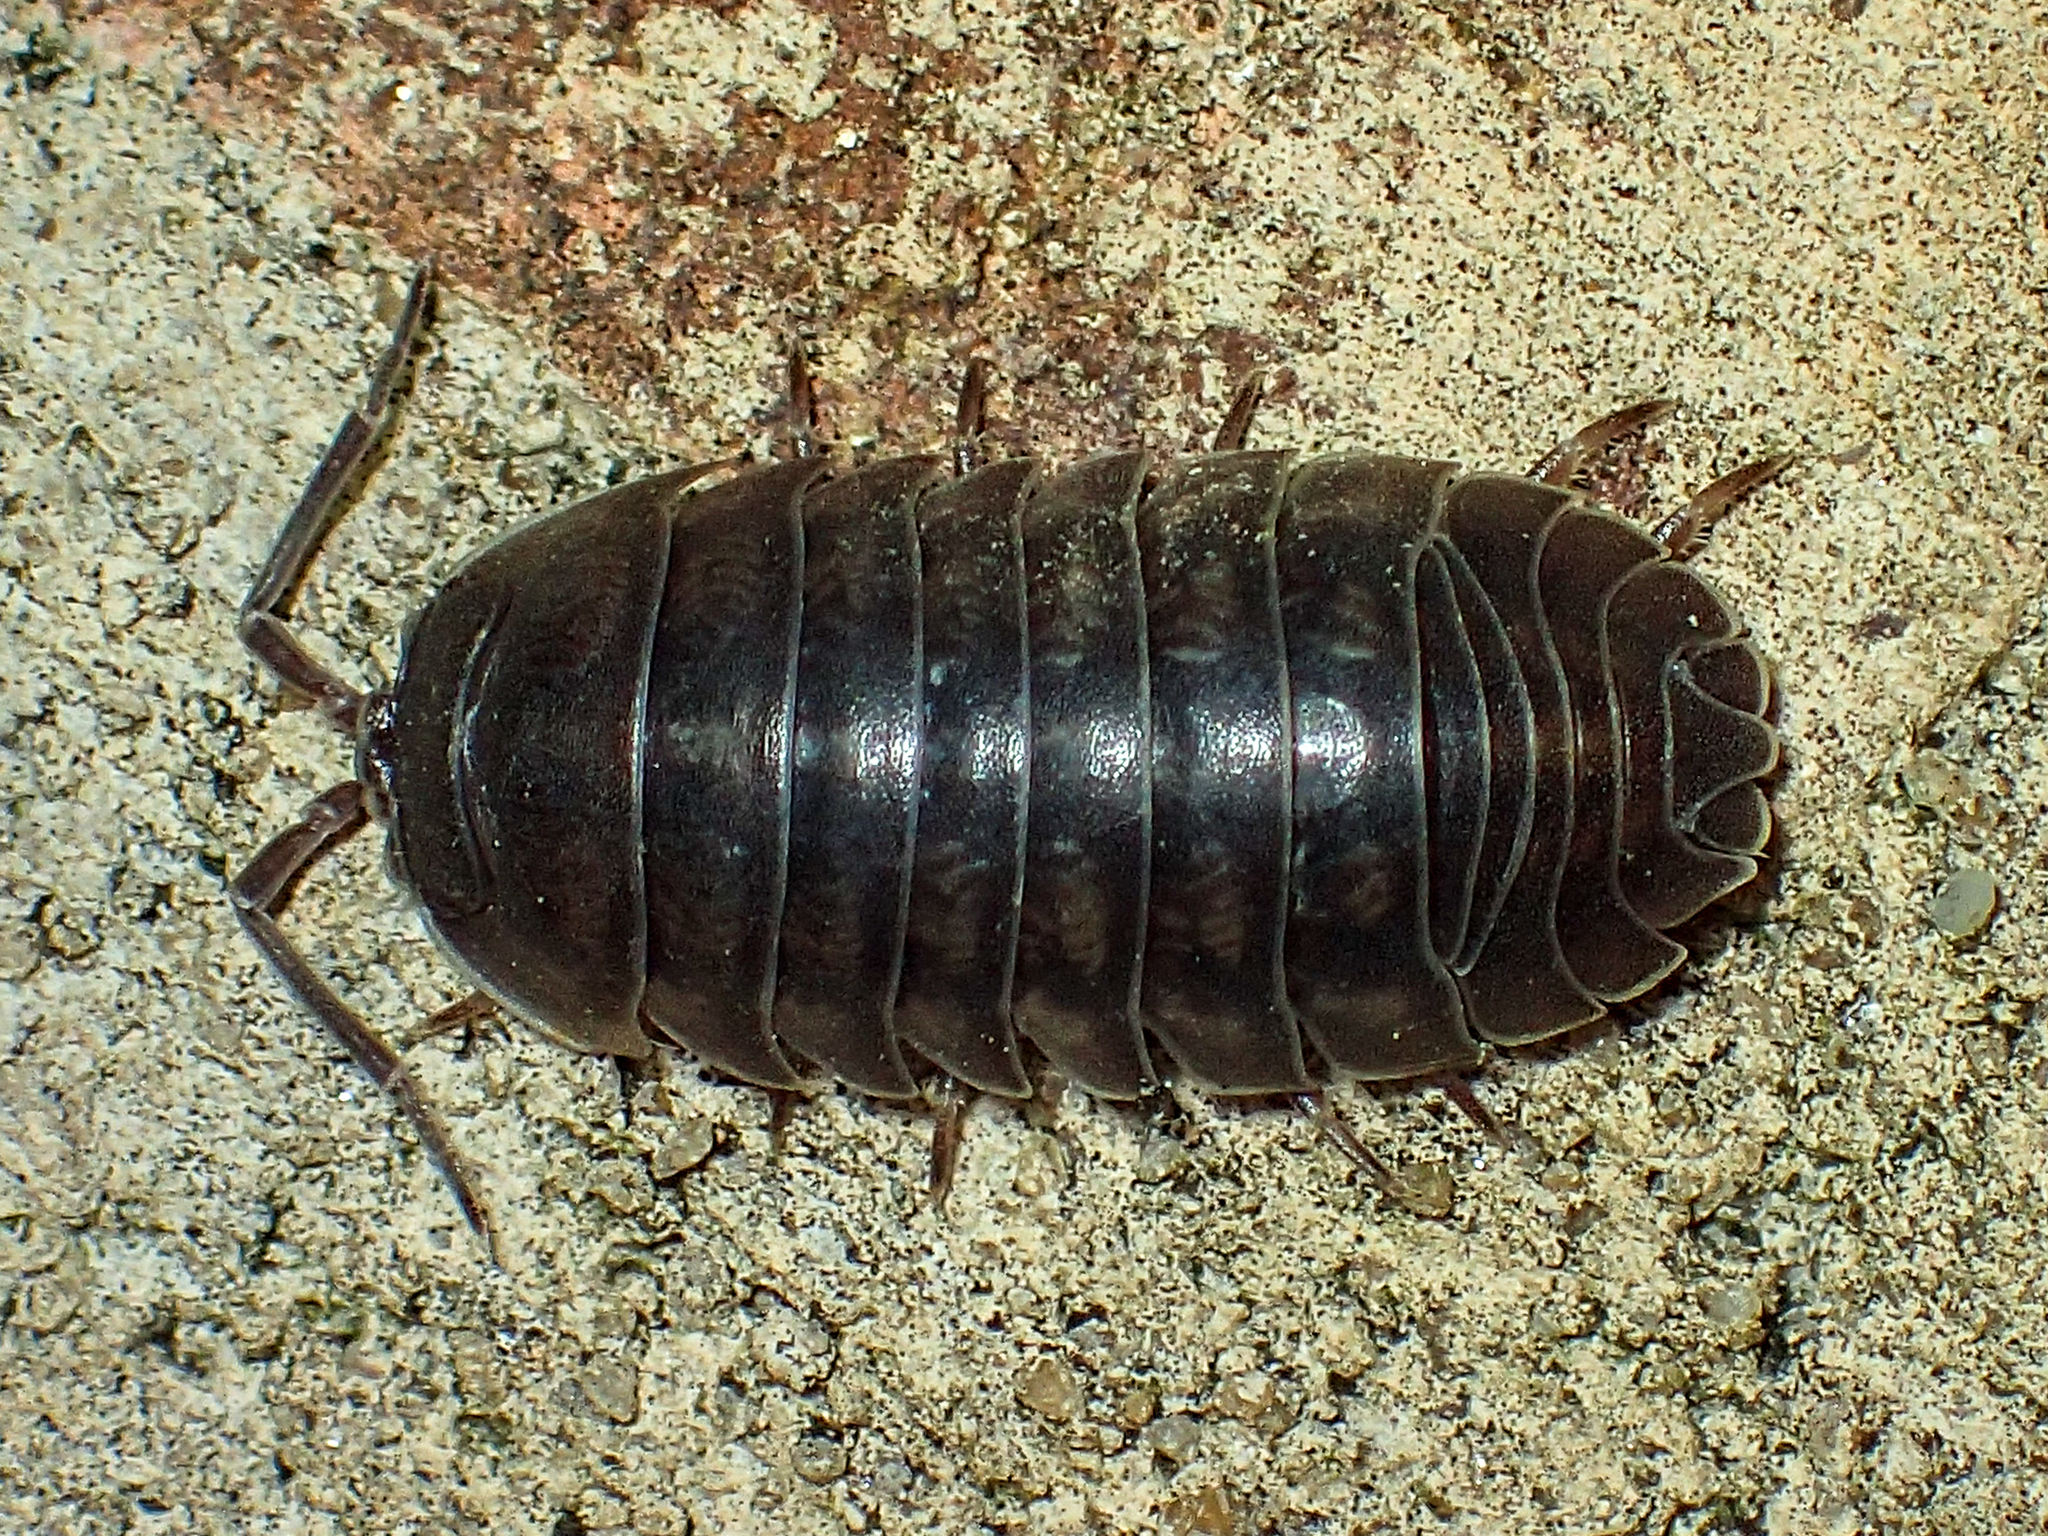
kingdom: Animalia
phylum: Arthropoda
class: Malacostraca
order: Isopoda
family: Armadillidiidae
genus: Armadillidium
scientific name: Armadillidium nasatum
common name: Isopod
